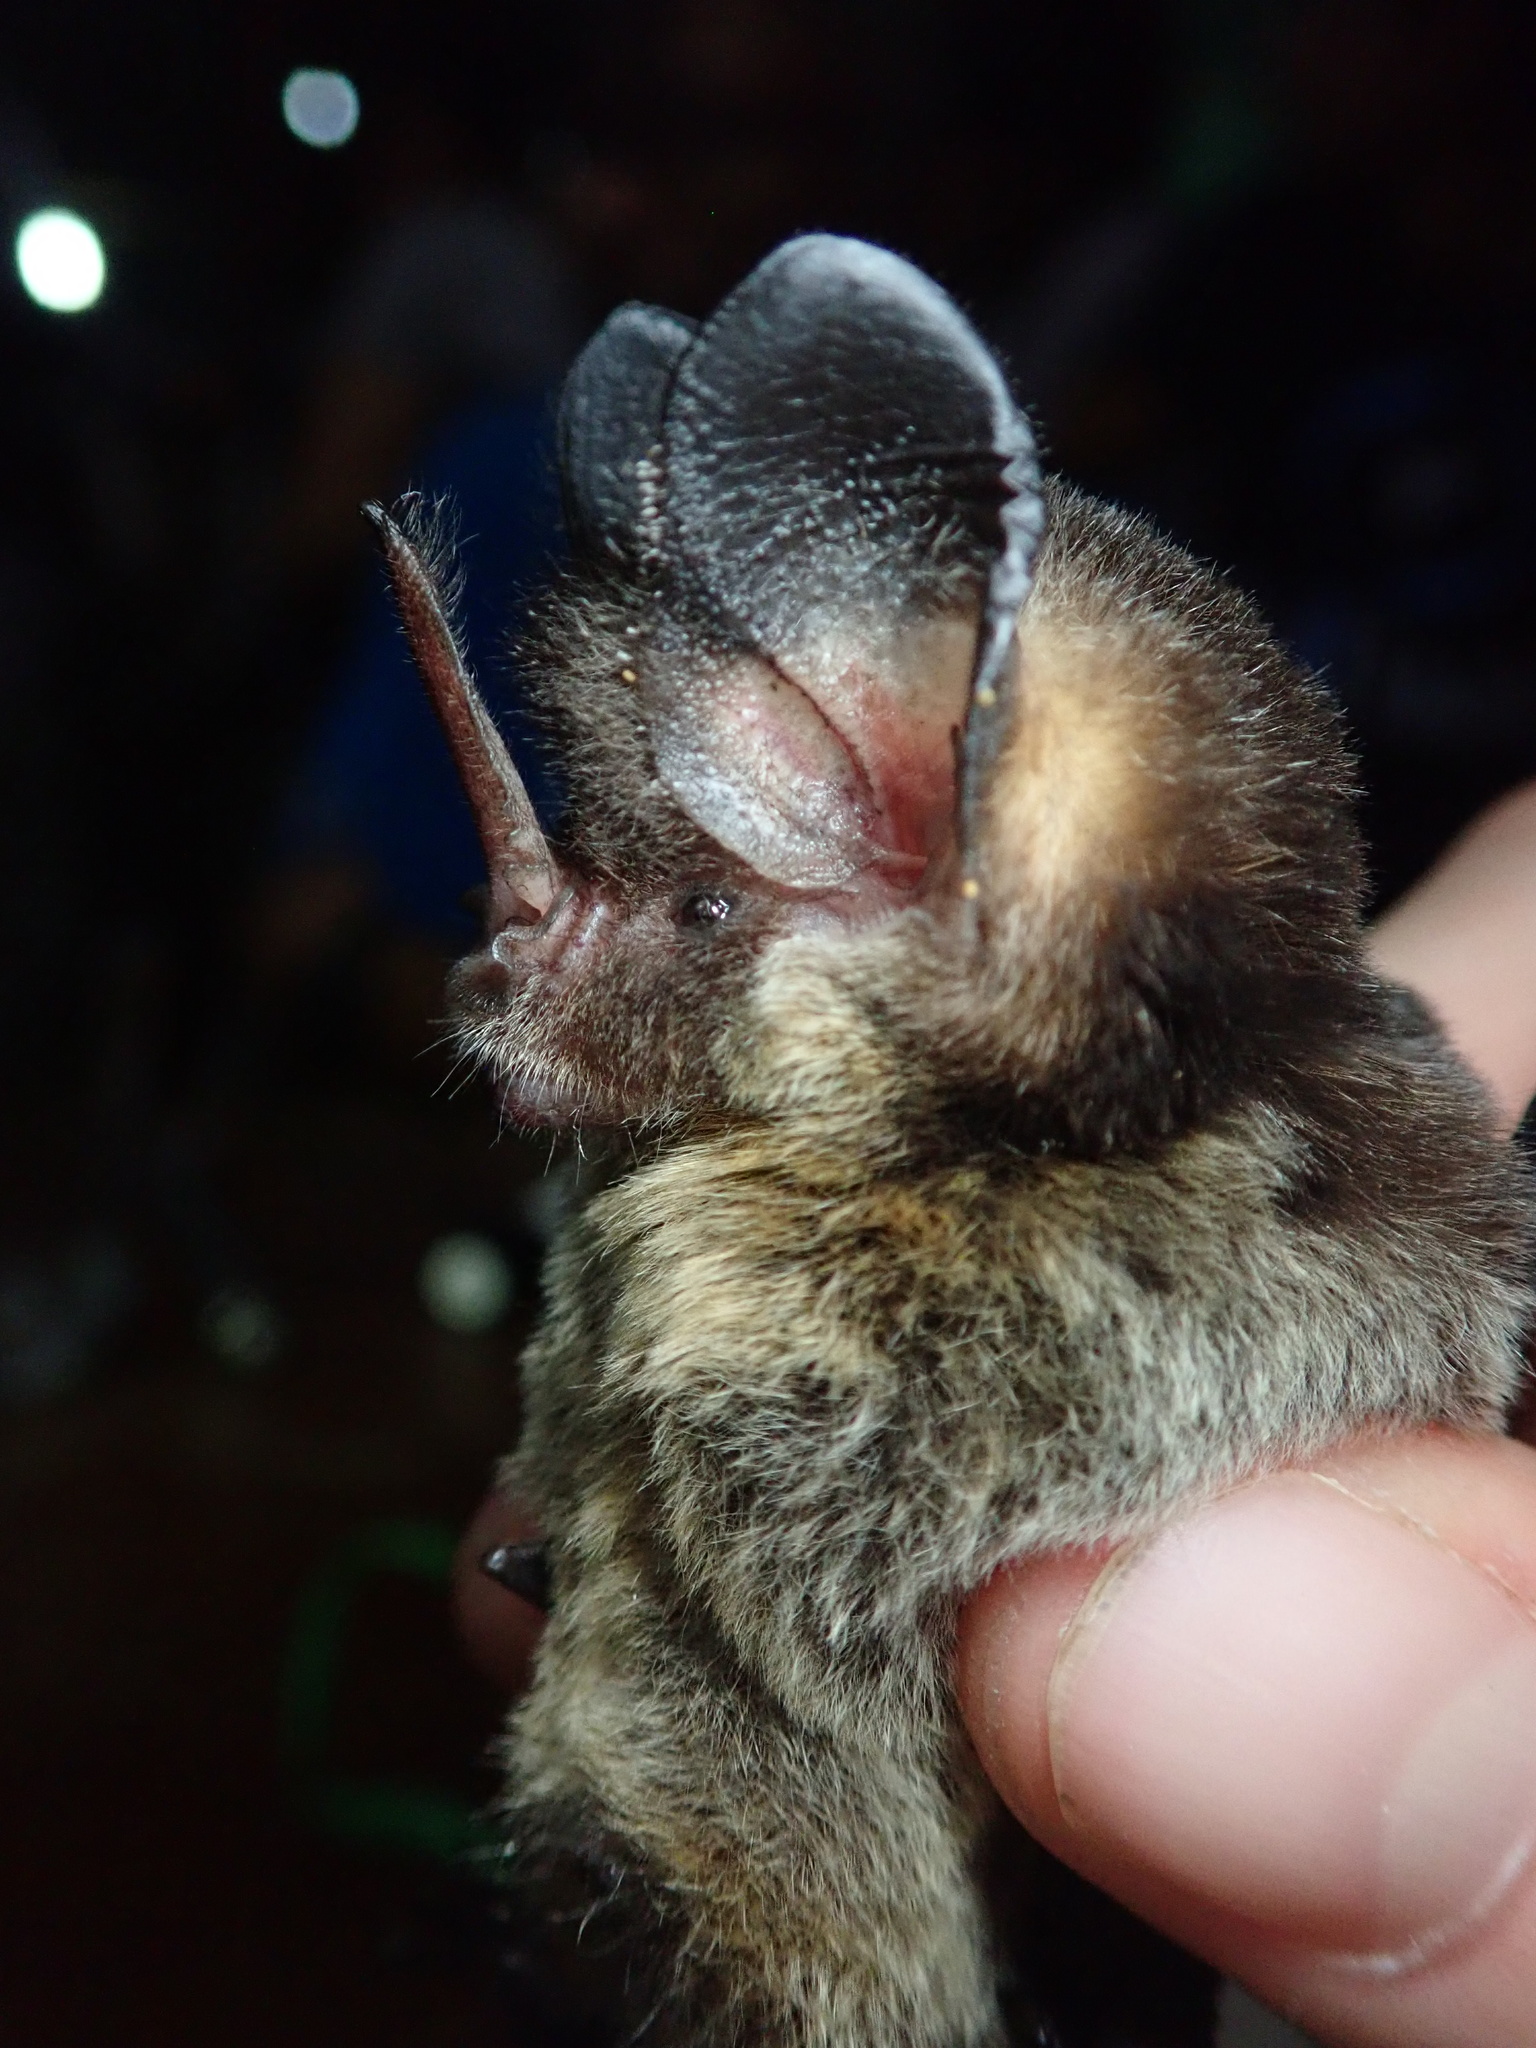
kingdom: Animalia
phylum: Chordata
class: Mammalia
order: Chiroptera
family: Phyllostomidae
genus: Gardnerycteris
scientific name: Gardnerycteris crenulatum
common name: Striped hairy-nosed bat
